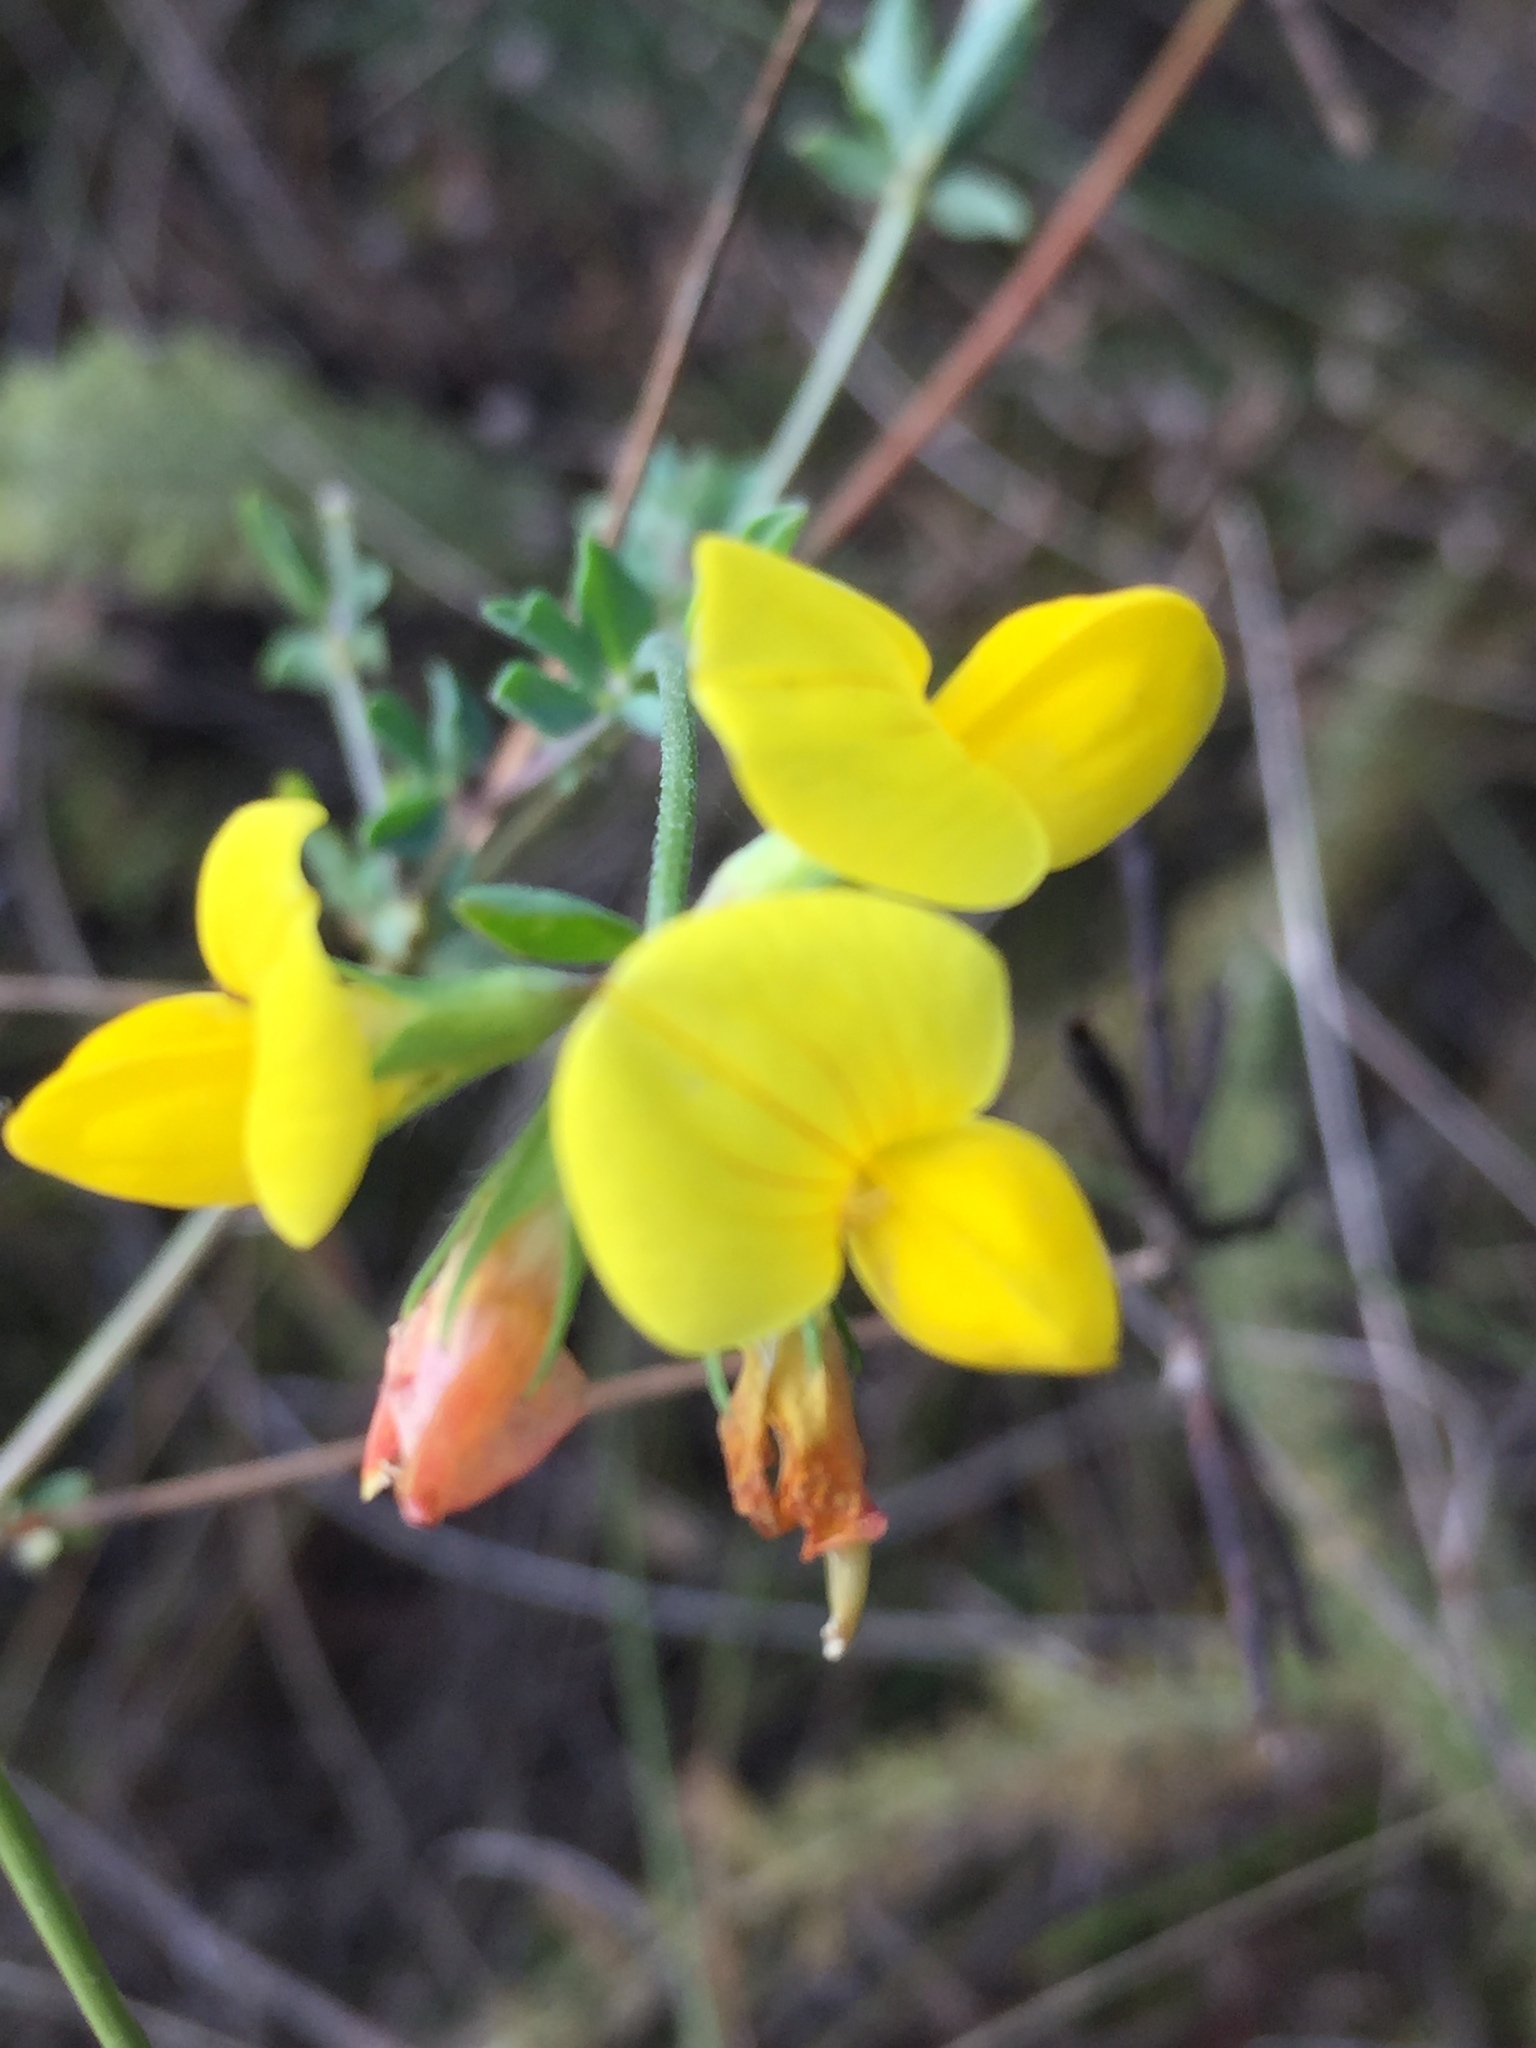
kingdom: Plantae
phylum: Tracheophyta
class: Magnoliopsida
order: Fabales
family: Fabaceae
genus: Lotus
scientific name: Lotus corniculatus
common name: Common bird's-foot-trefoil
